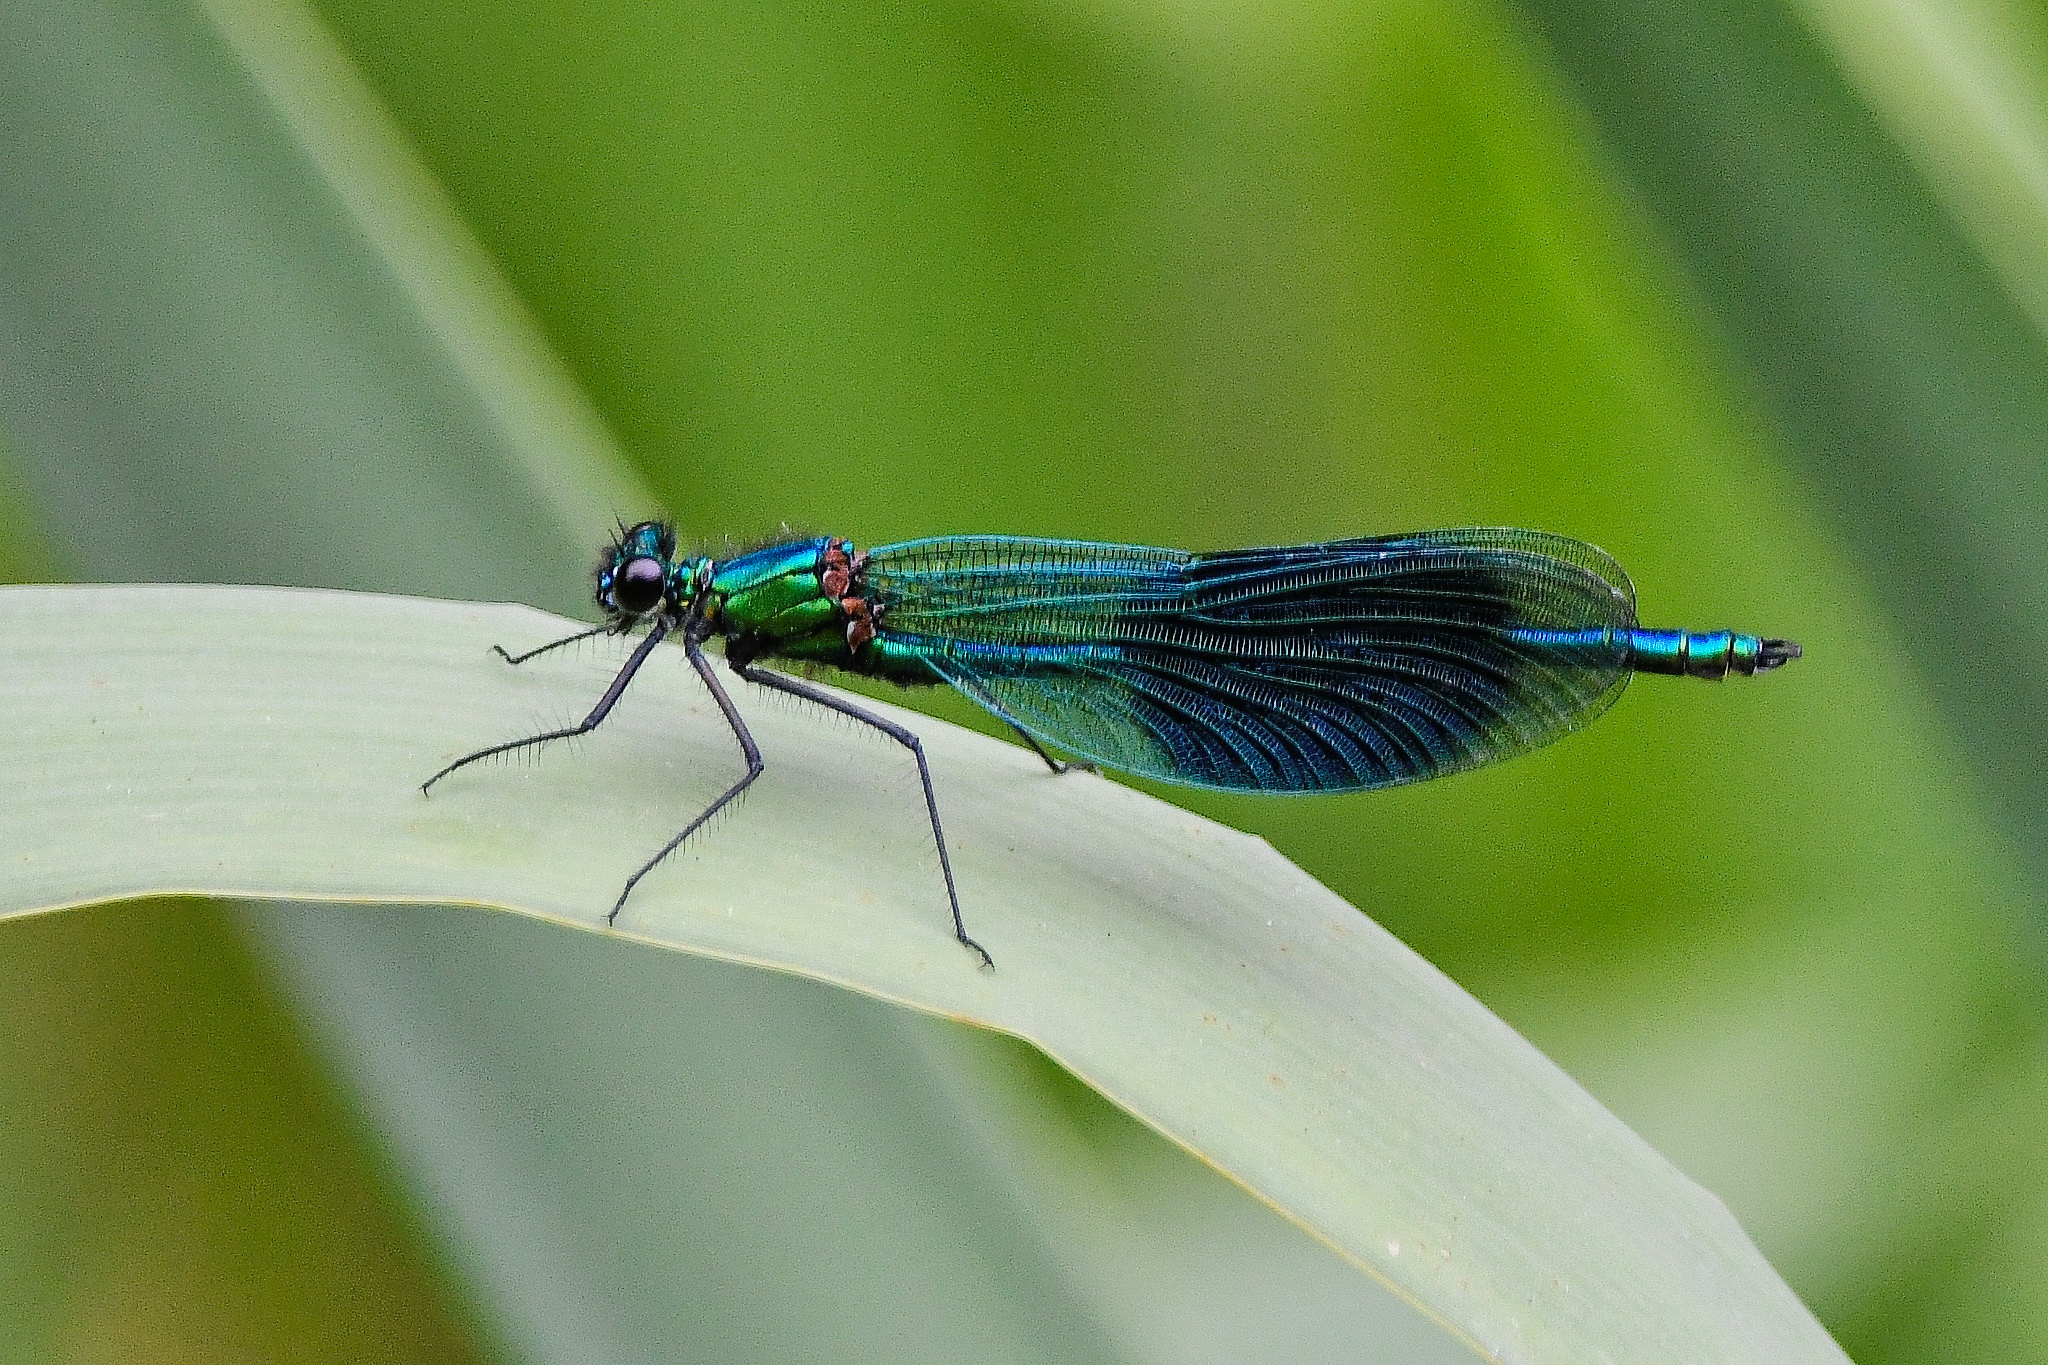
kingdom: Animalia
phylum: Arthropoda
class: Insecta
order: Odonata
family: Calopterygidae
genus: Calopteryx
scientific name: Calopteryx splendens
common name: Banded demoiselle
